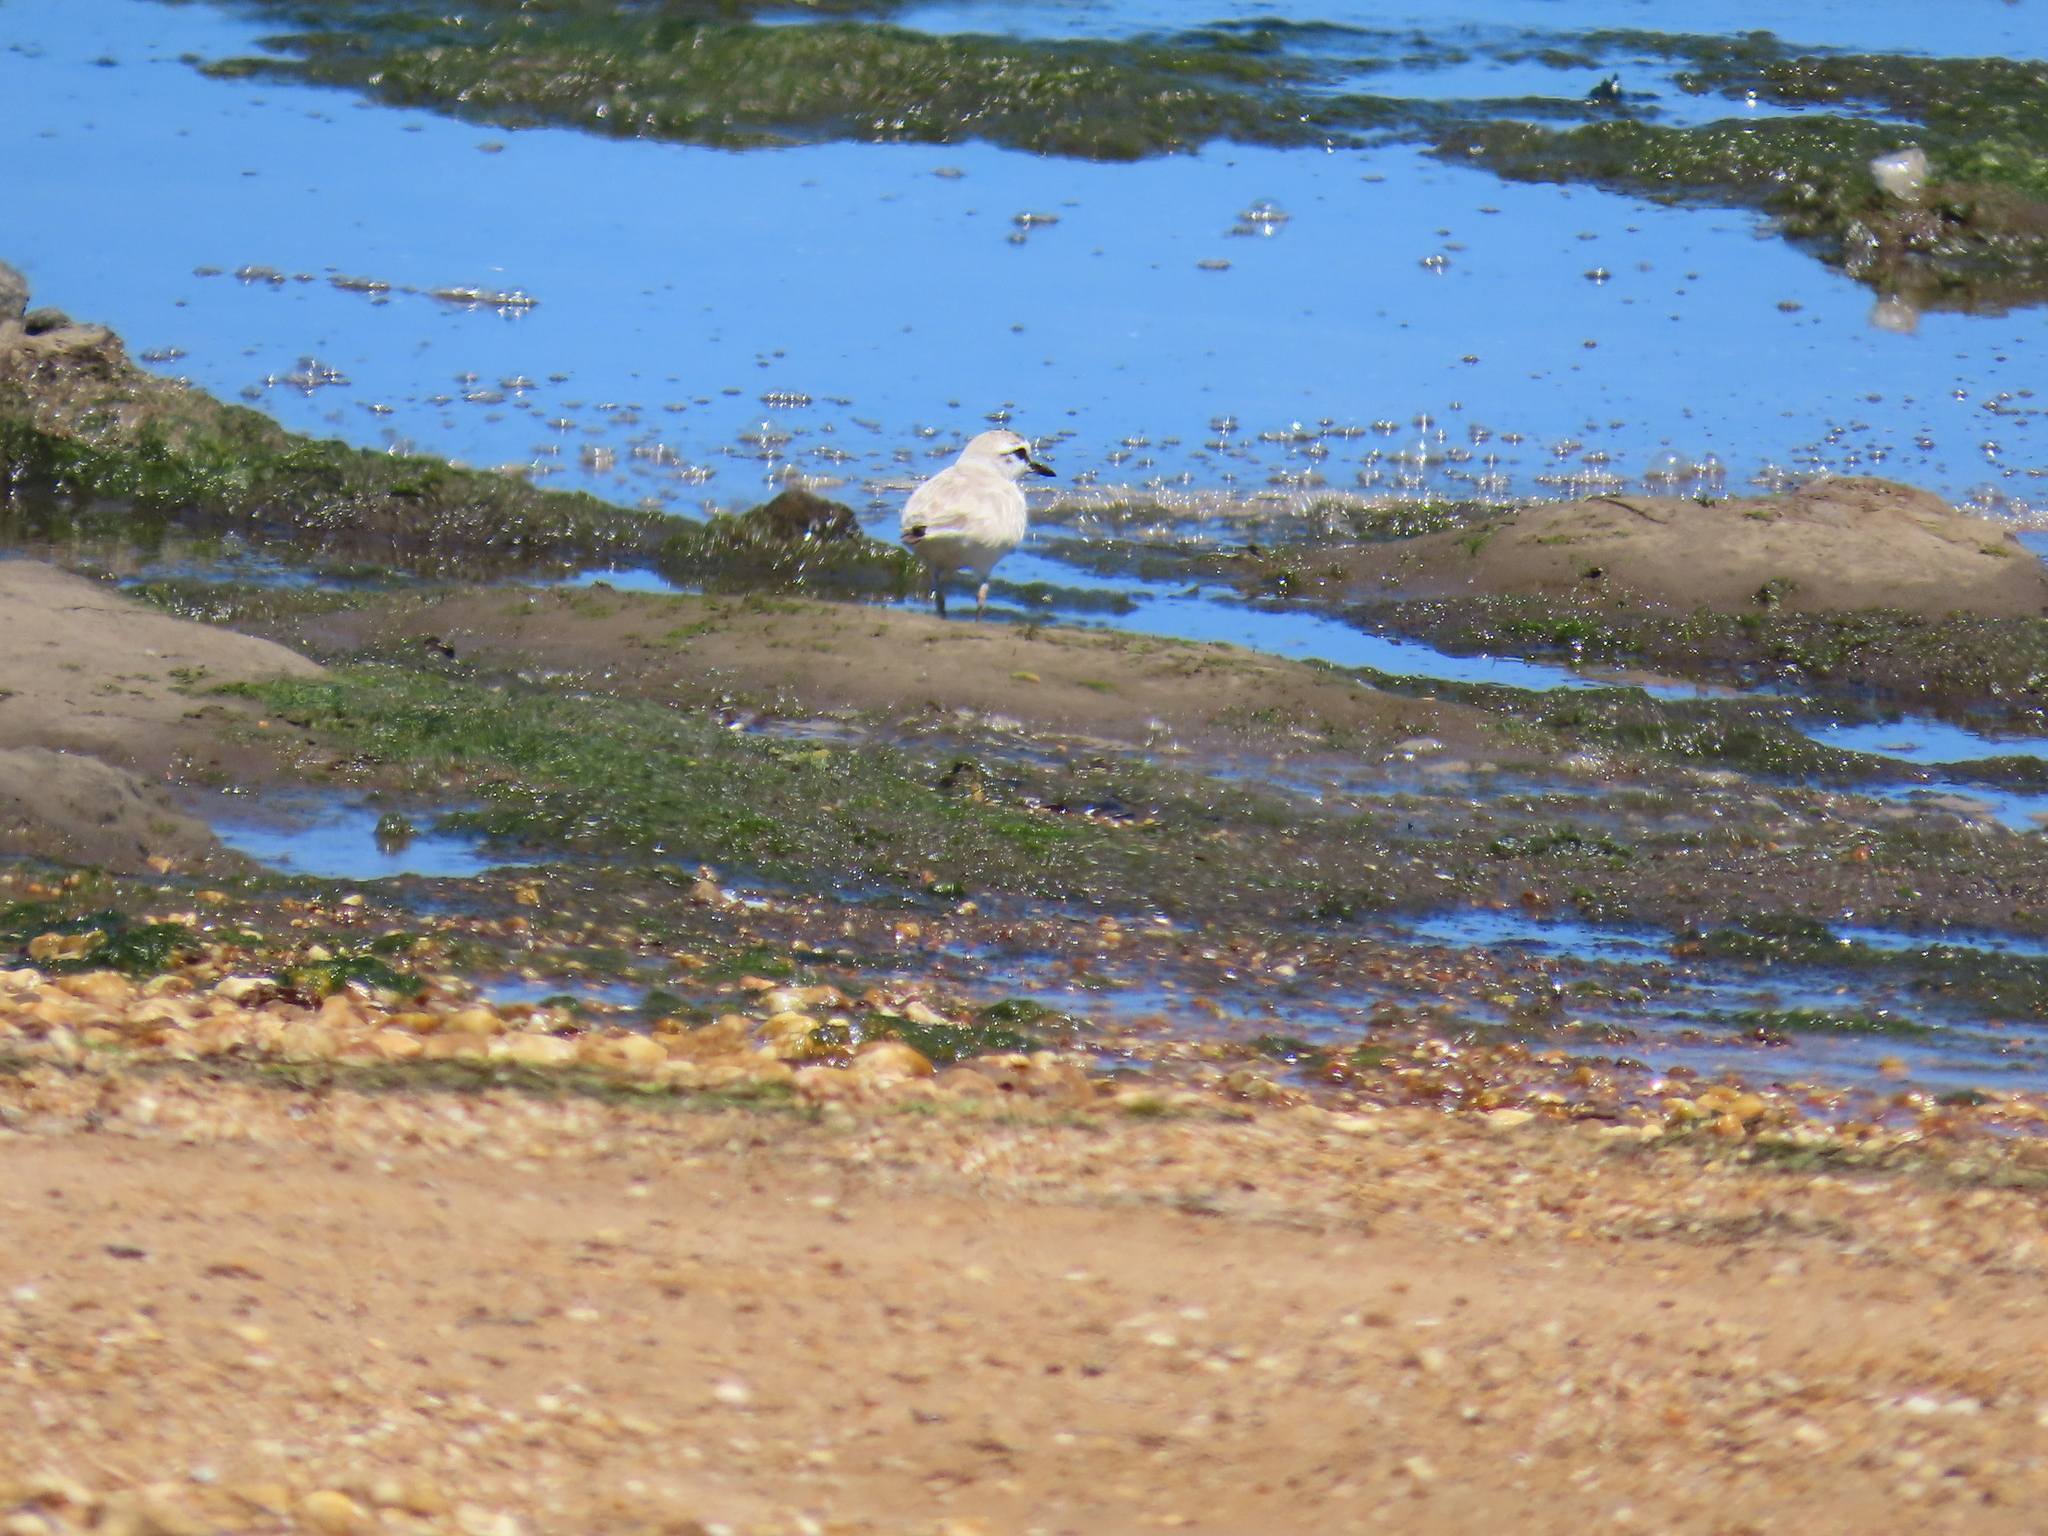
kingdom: Animalia
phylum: Chordata
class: Aves
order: Charadriiformes
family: Charadriidae
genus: Anarhynchus
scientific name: Anarhynchus
